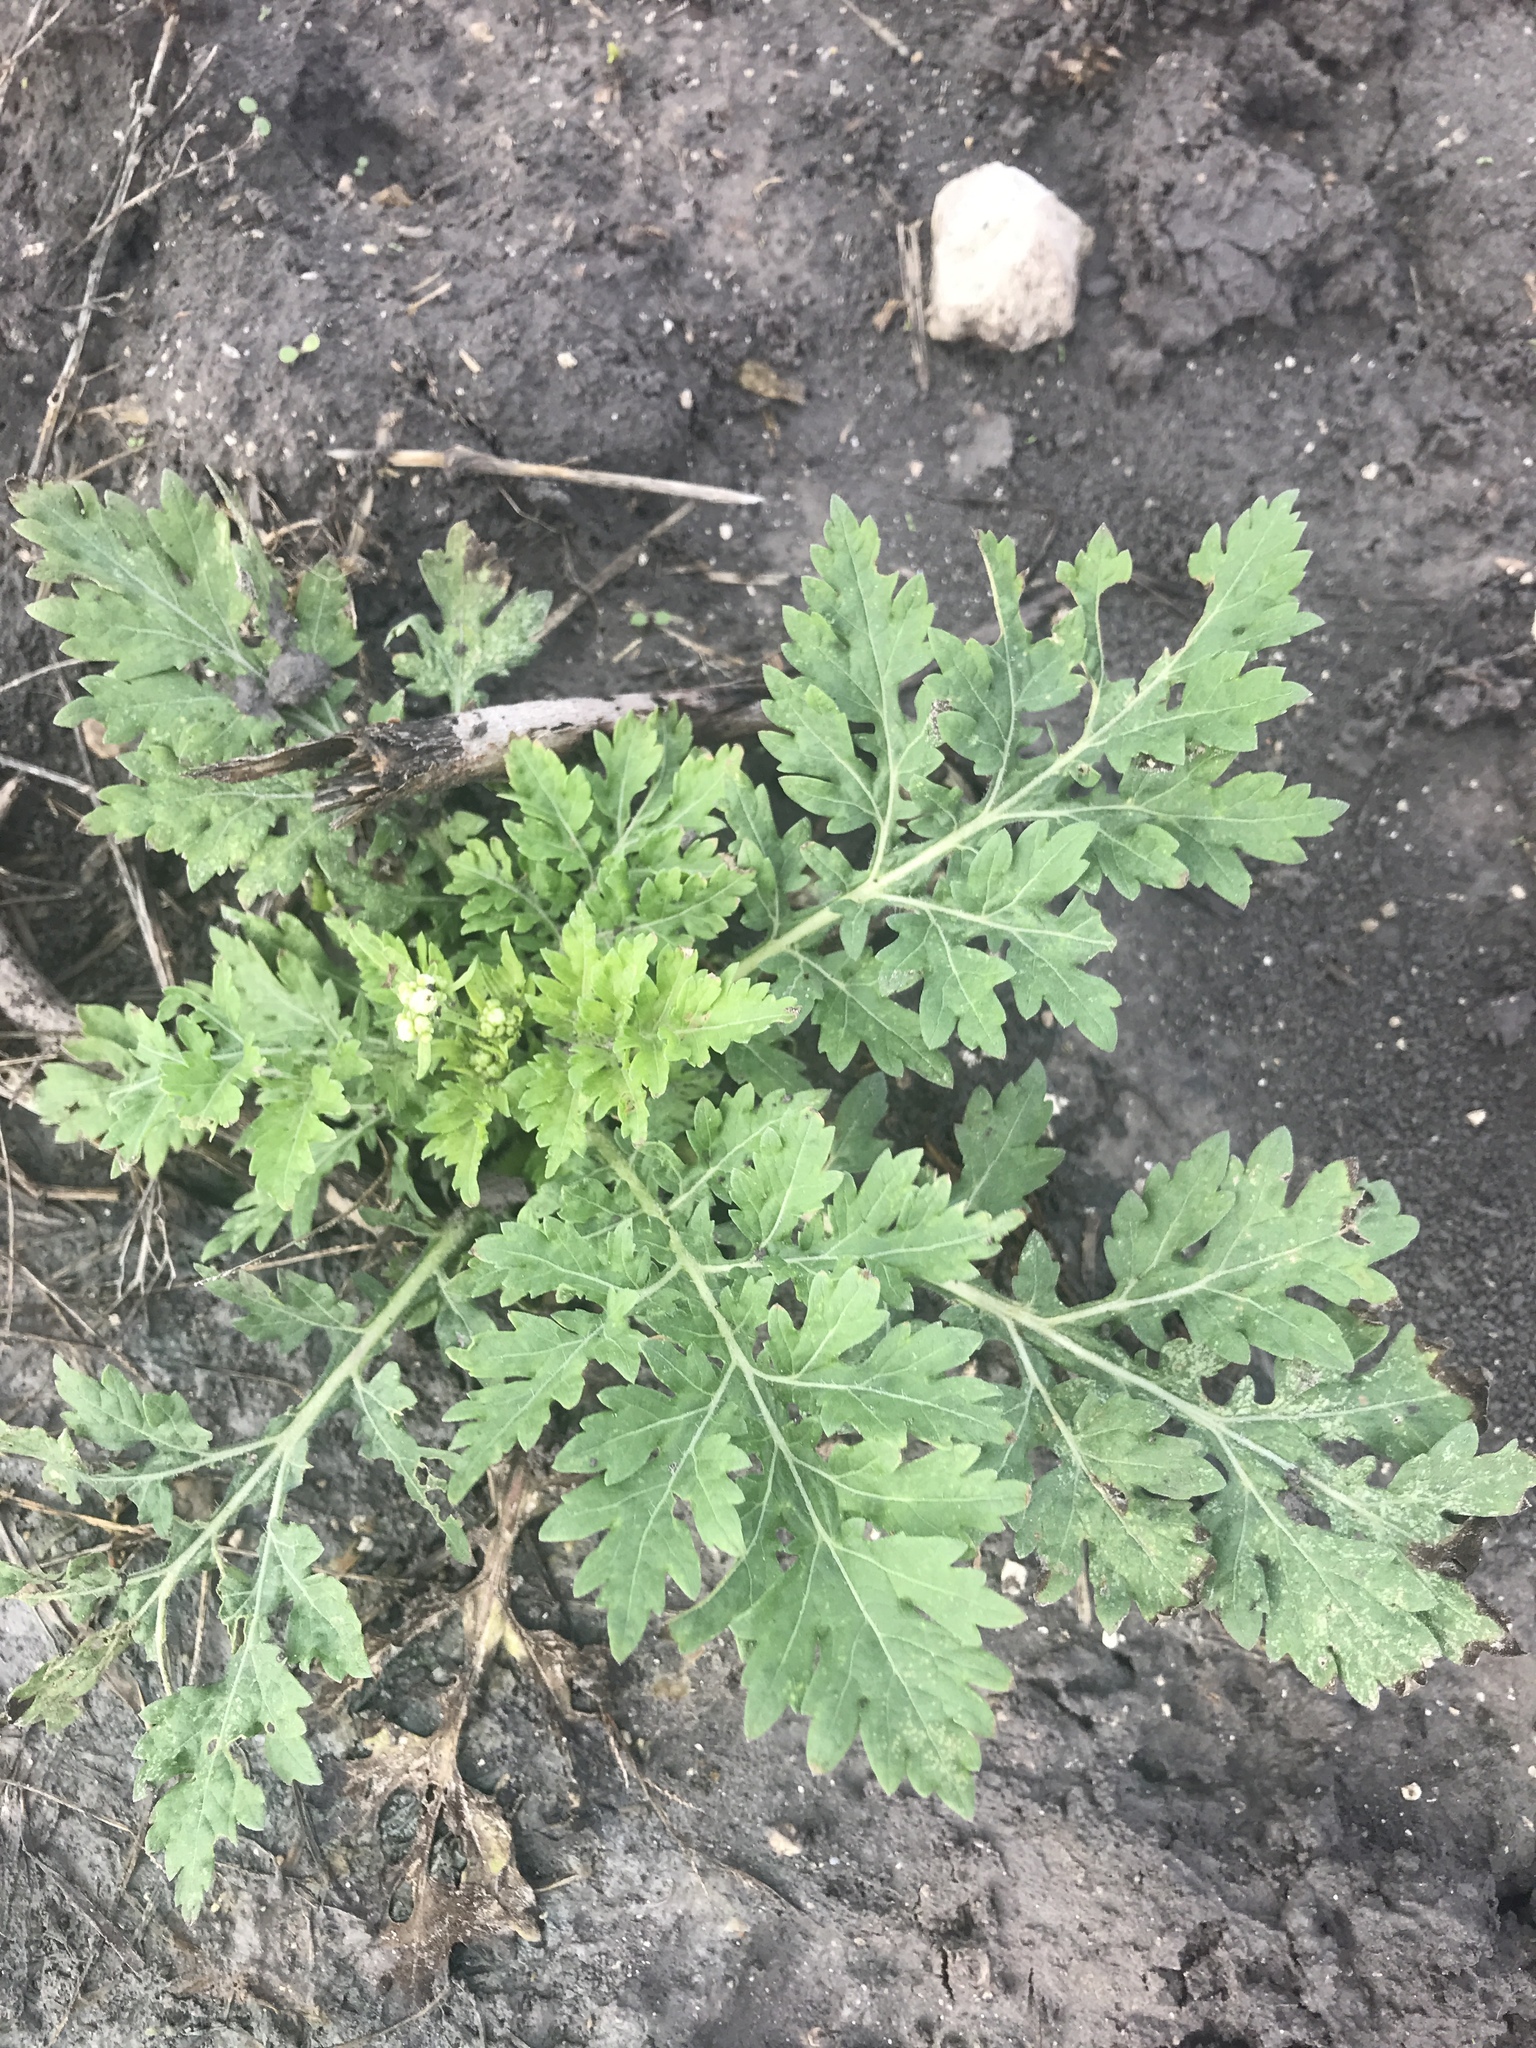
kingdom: Plantae
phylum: Tracheophyta
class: Magnoliopsida
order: Asterales
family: Asteraceae
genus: Parthenium
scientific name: Parthenium hysterophorus
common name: Santa maria feverfew
